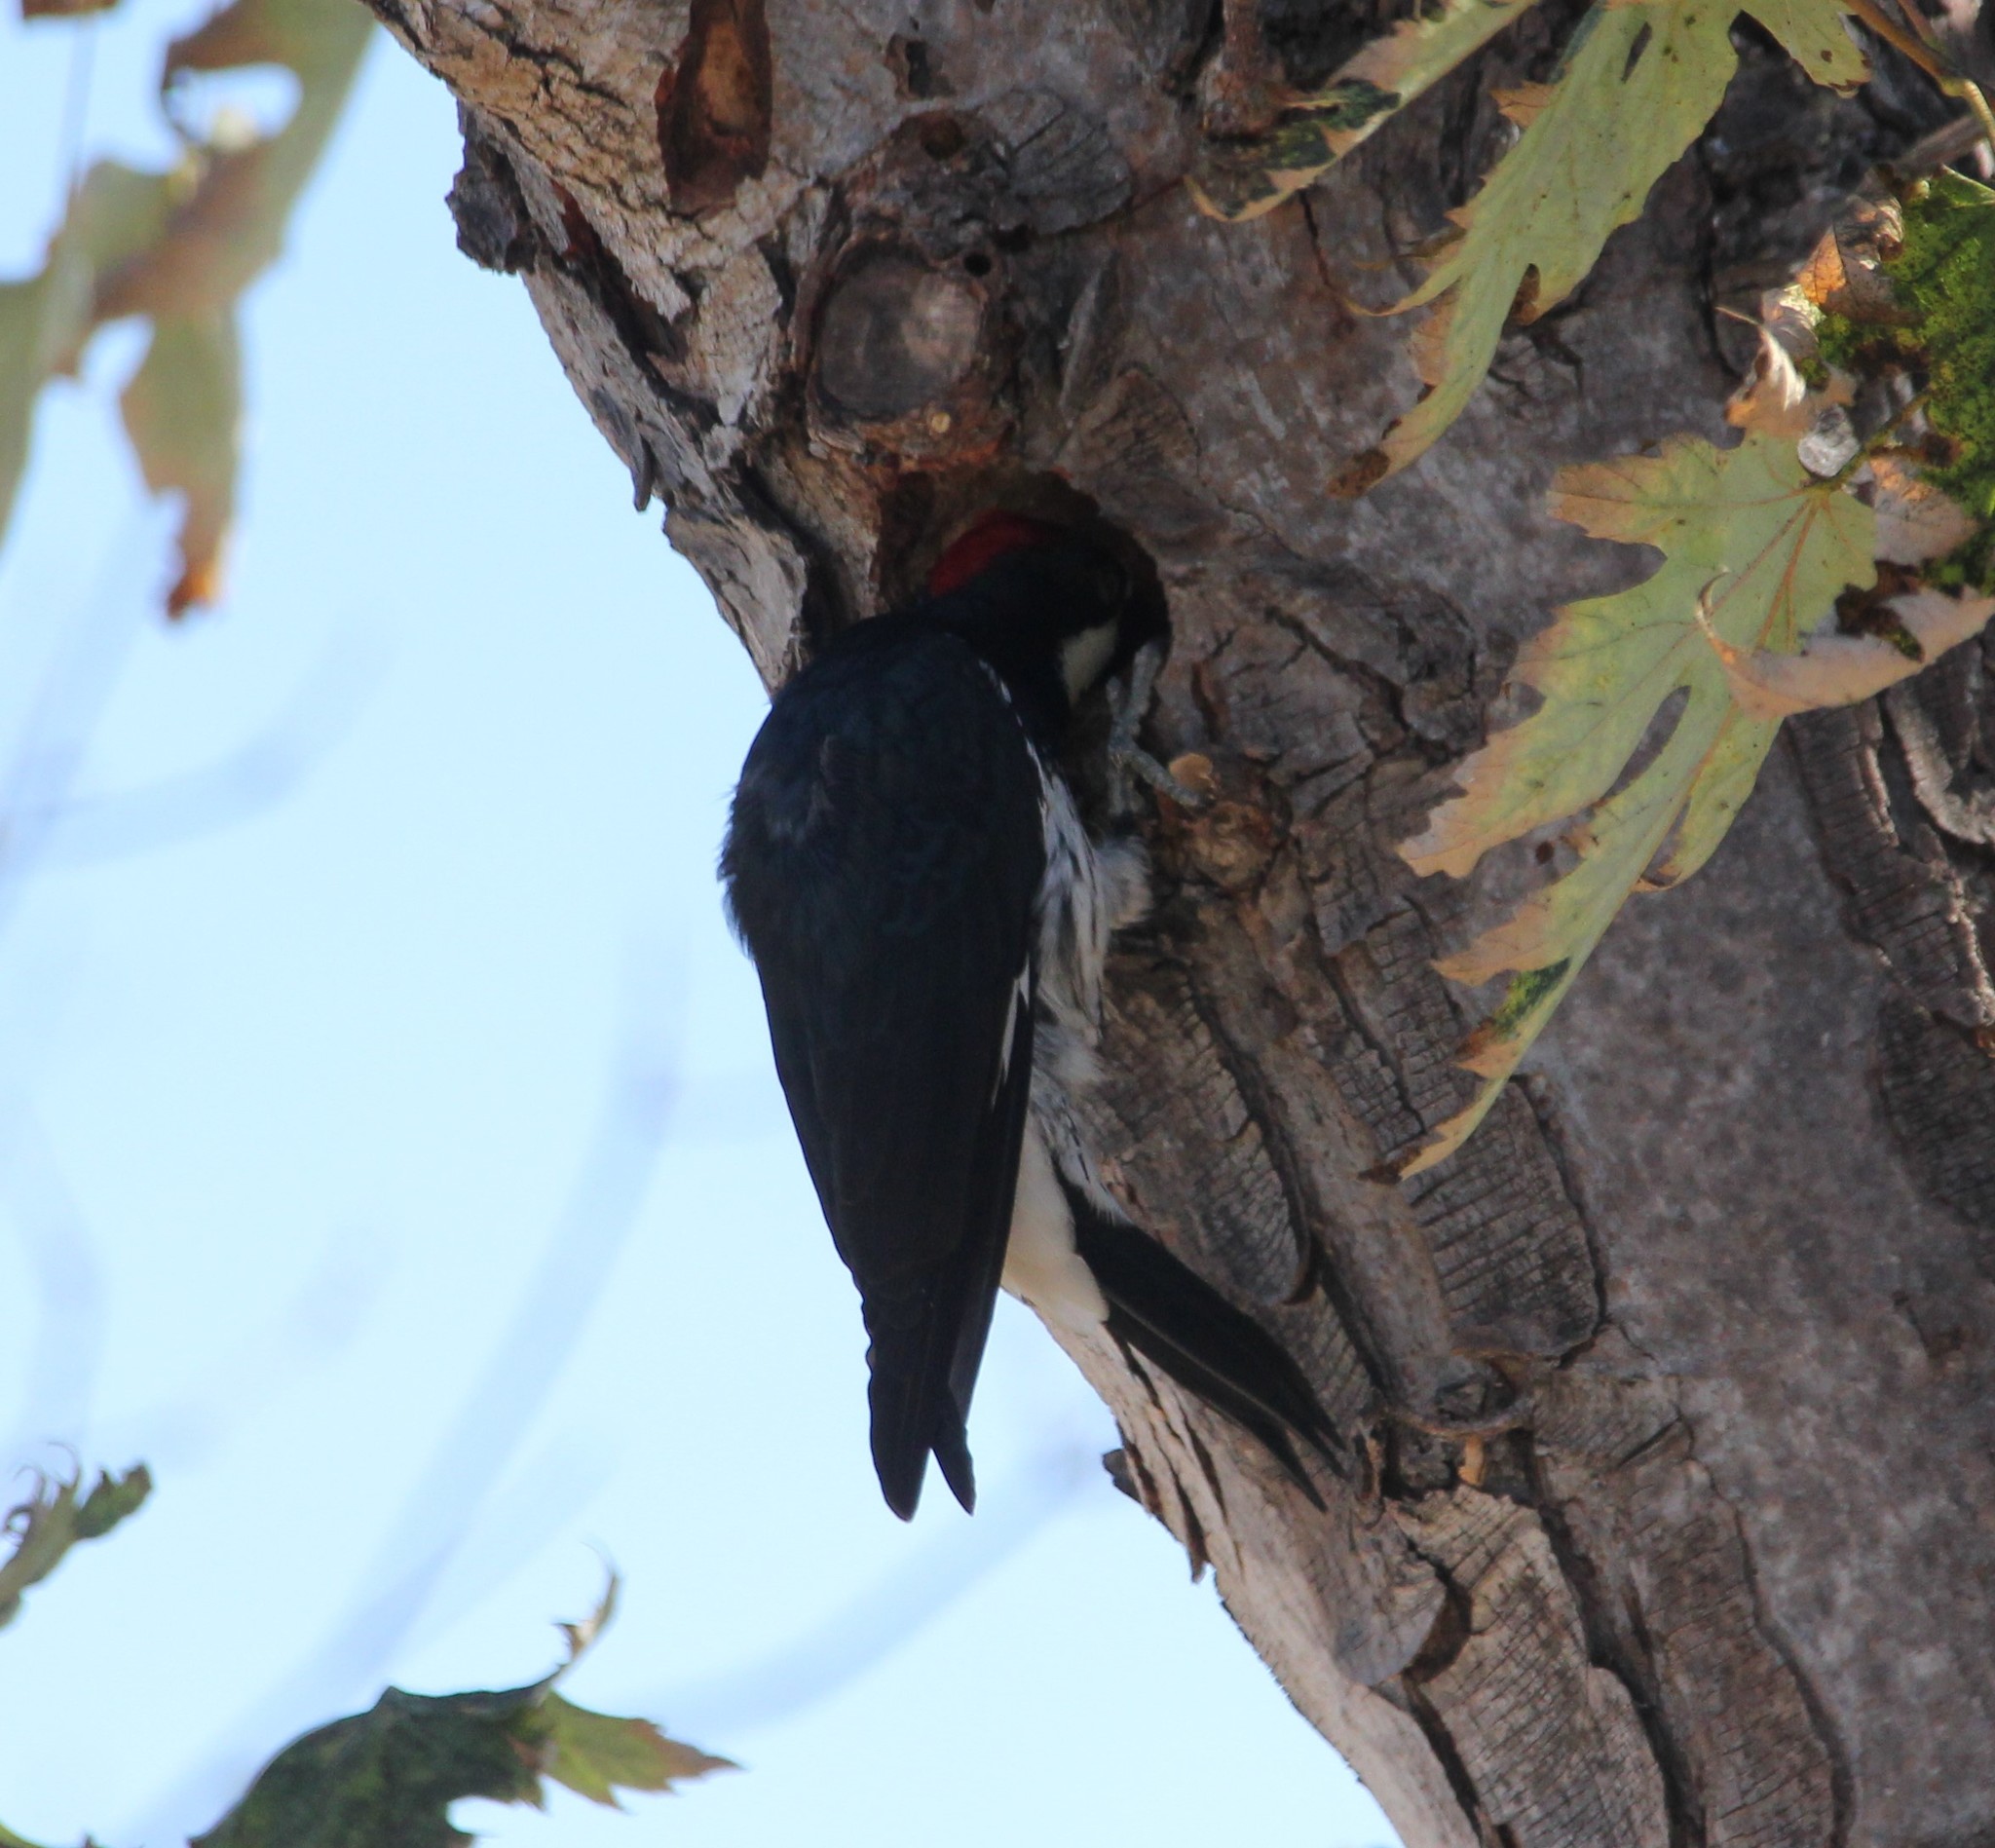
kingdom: Animalia
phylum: Chordata
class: Aves
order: Piciformes
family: Picidae
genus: Melanerpes
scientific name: Melanerpes formicivorus
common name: Acorn woodpecker
